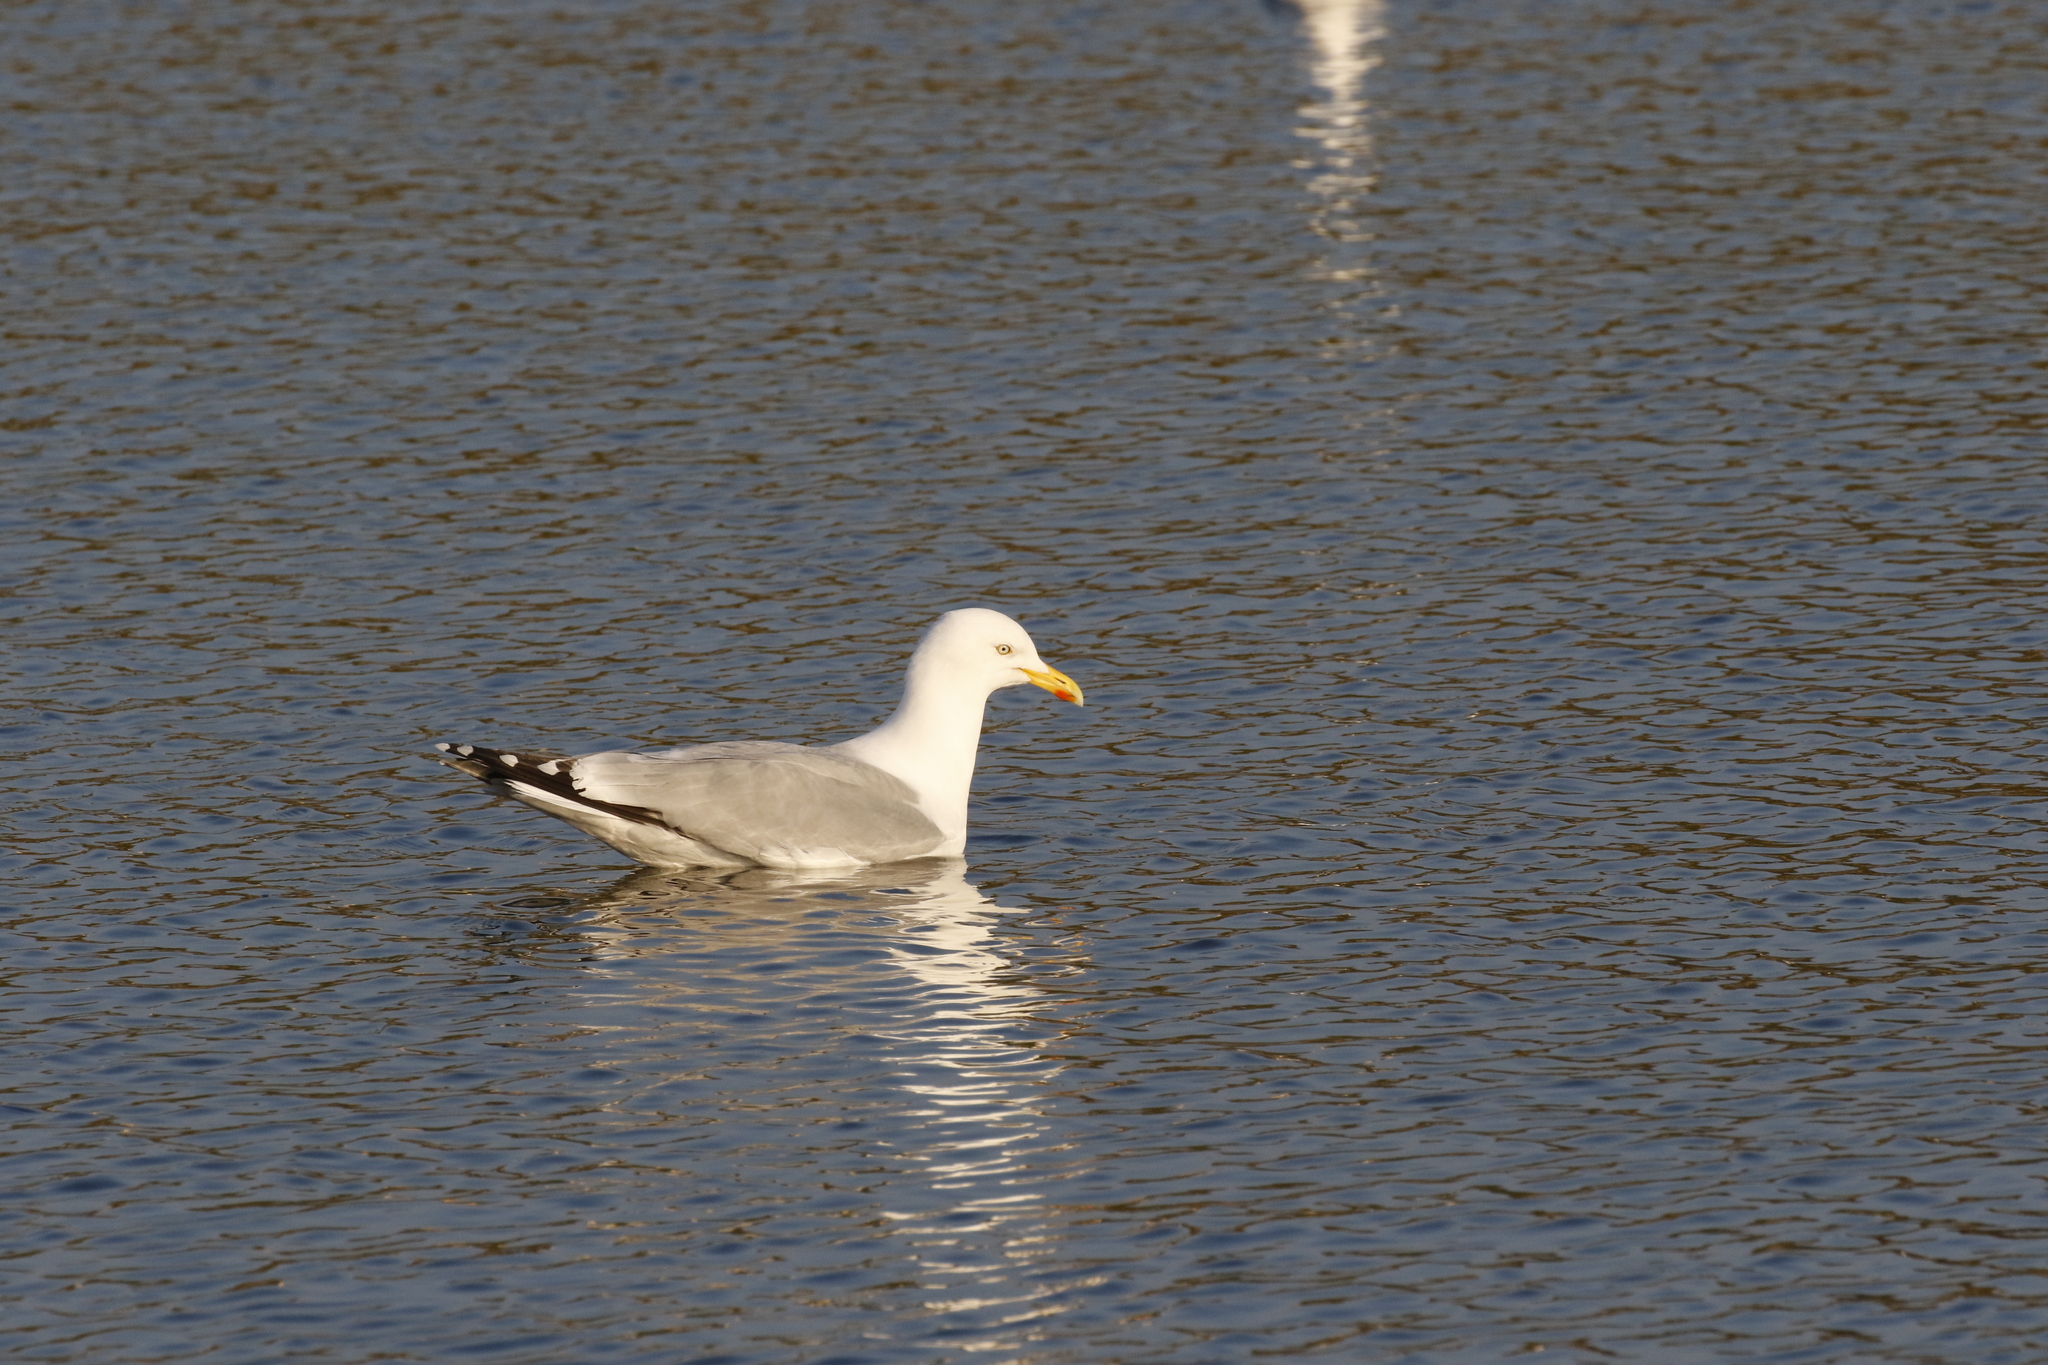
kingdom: Animalia
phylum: Chordata
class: Aves
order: Charadriiformes
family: Laridae
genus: Larus
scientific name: Larus argentatus
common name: Herring gull
